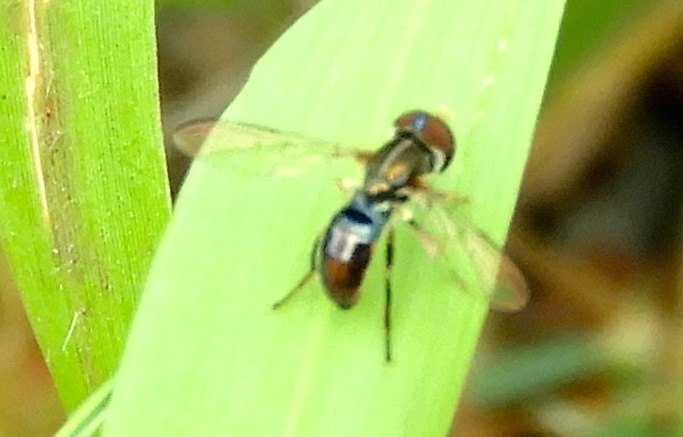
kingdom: Animalia
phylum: Arthropoda
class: Insecta
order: Diptera
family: Syrphidae
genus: Toxomerus
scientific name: Toxomerus
